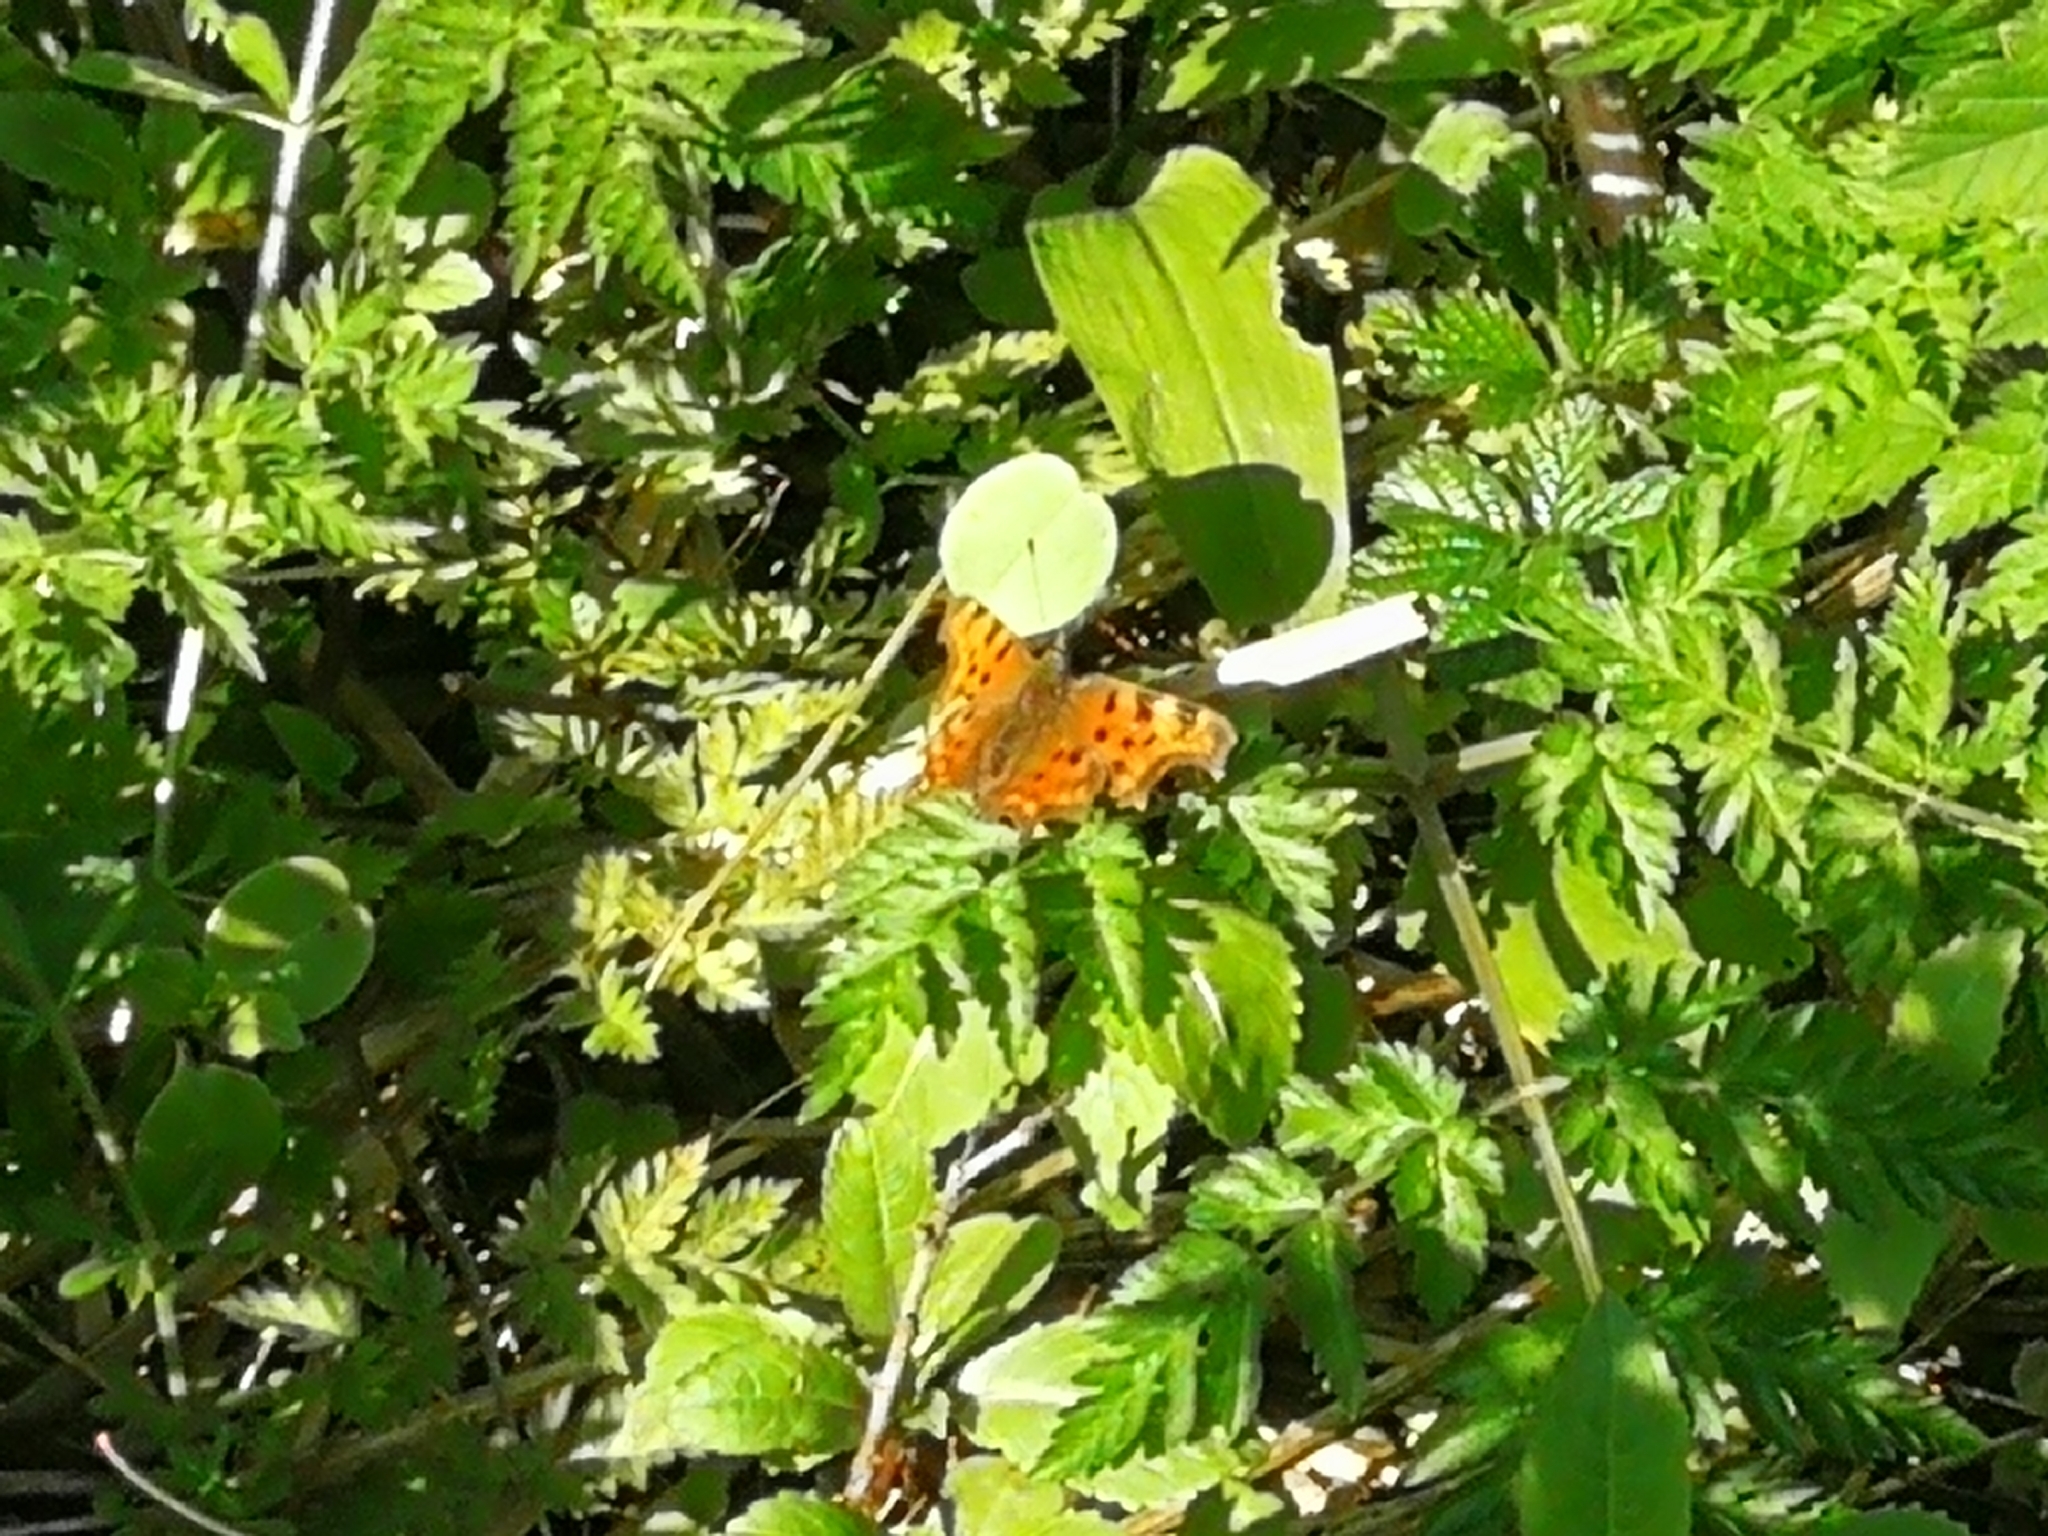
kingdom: Animalia
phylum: Arthropoda
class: Insecta
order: Lepidoptera
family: Nymphalidae
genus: Polygonia
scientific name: Polygonia c-album
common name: Comma
